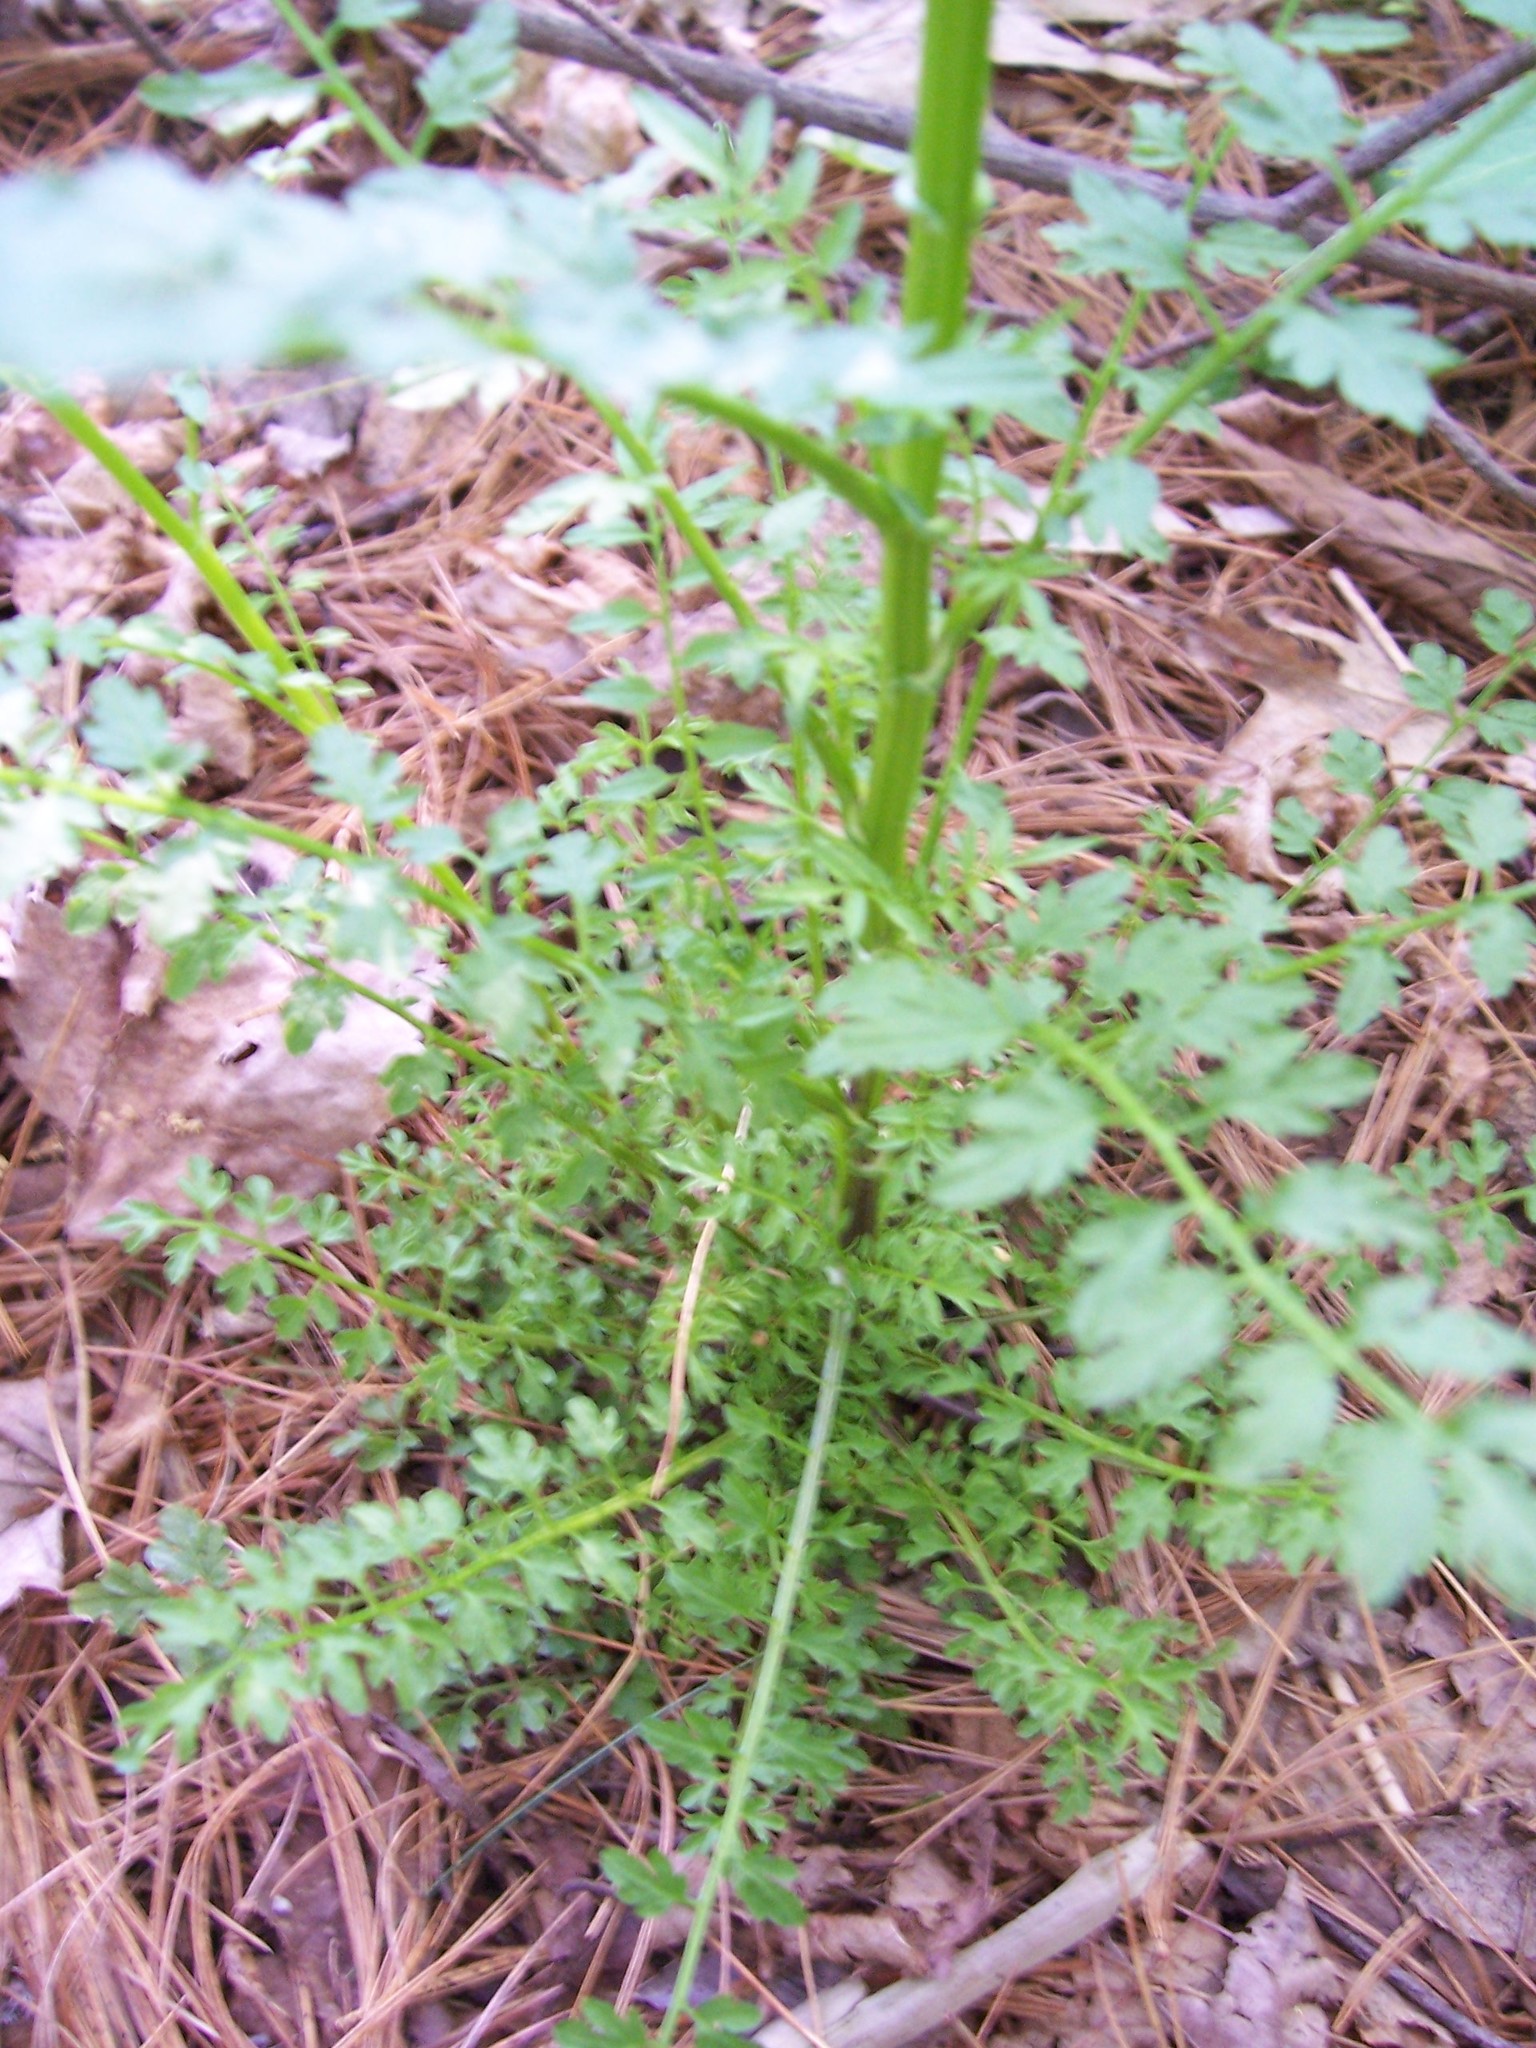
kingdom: Plantae
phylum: Tracheophyta
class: Magnoliopsida
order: Brassicales
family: Brassicaceae
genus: Cardamine
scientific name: Cardamine impatiens
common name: Narrow-leaved bitter-cress
